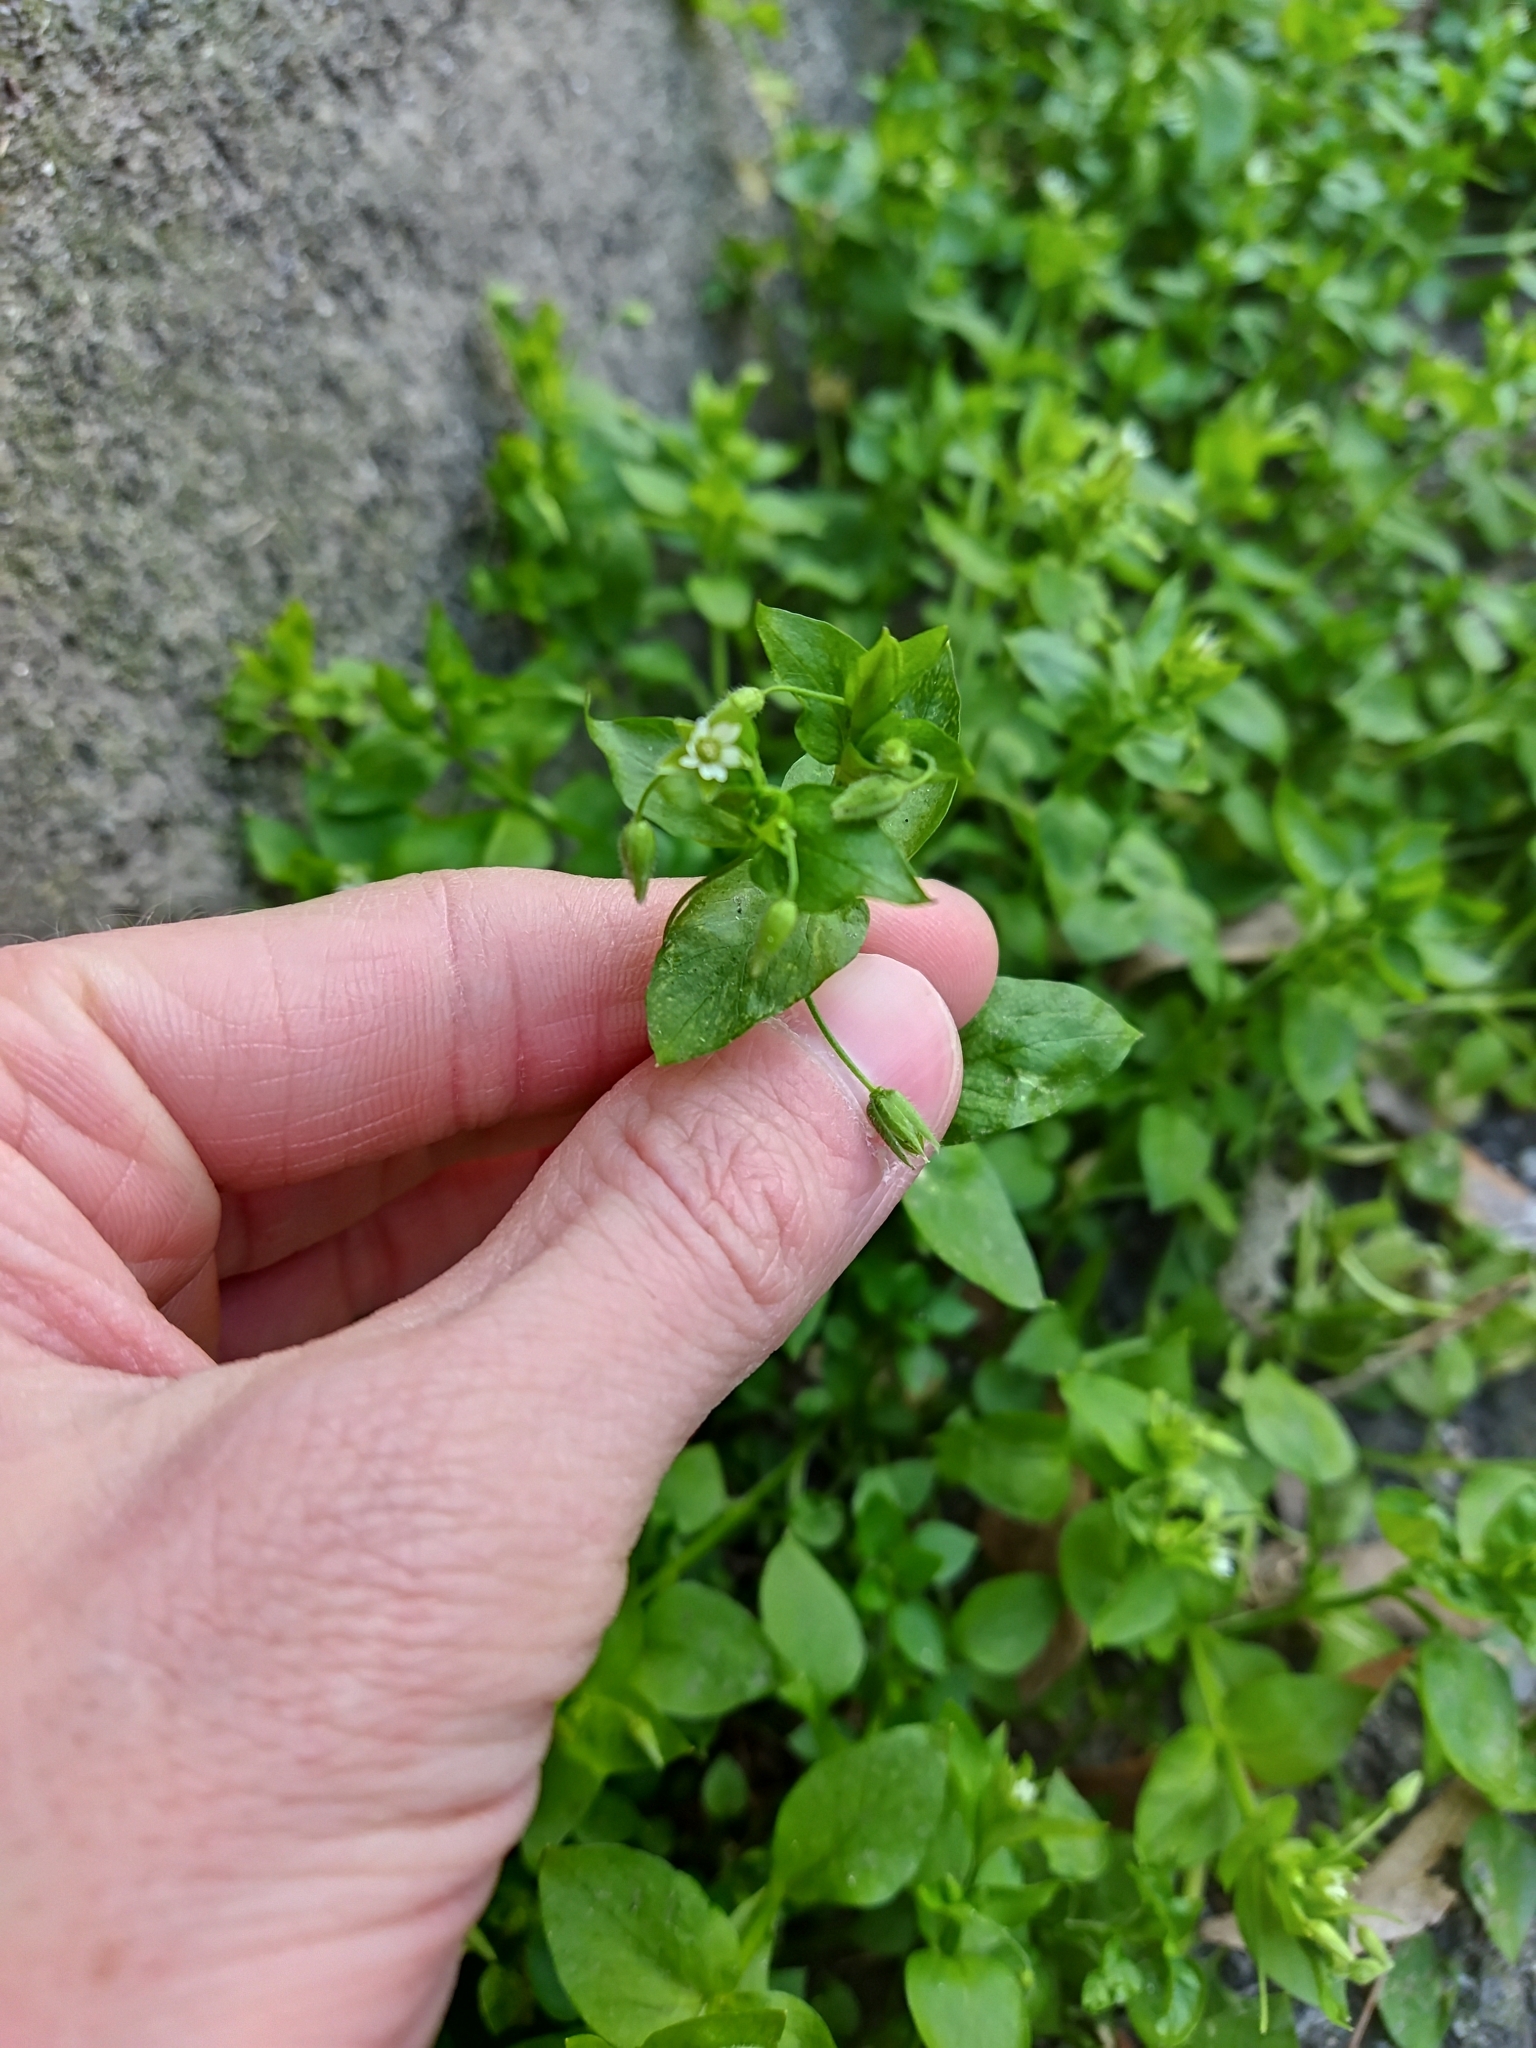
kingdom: Plantae
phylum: Tracheophyta
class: Magnoliopsida
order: Caryophyllales
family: Caryophyllaceae
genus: Stellaria
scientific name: Stellaria media
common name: Common chickweed
